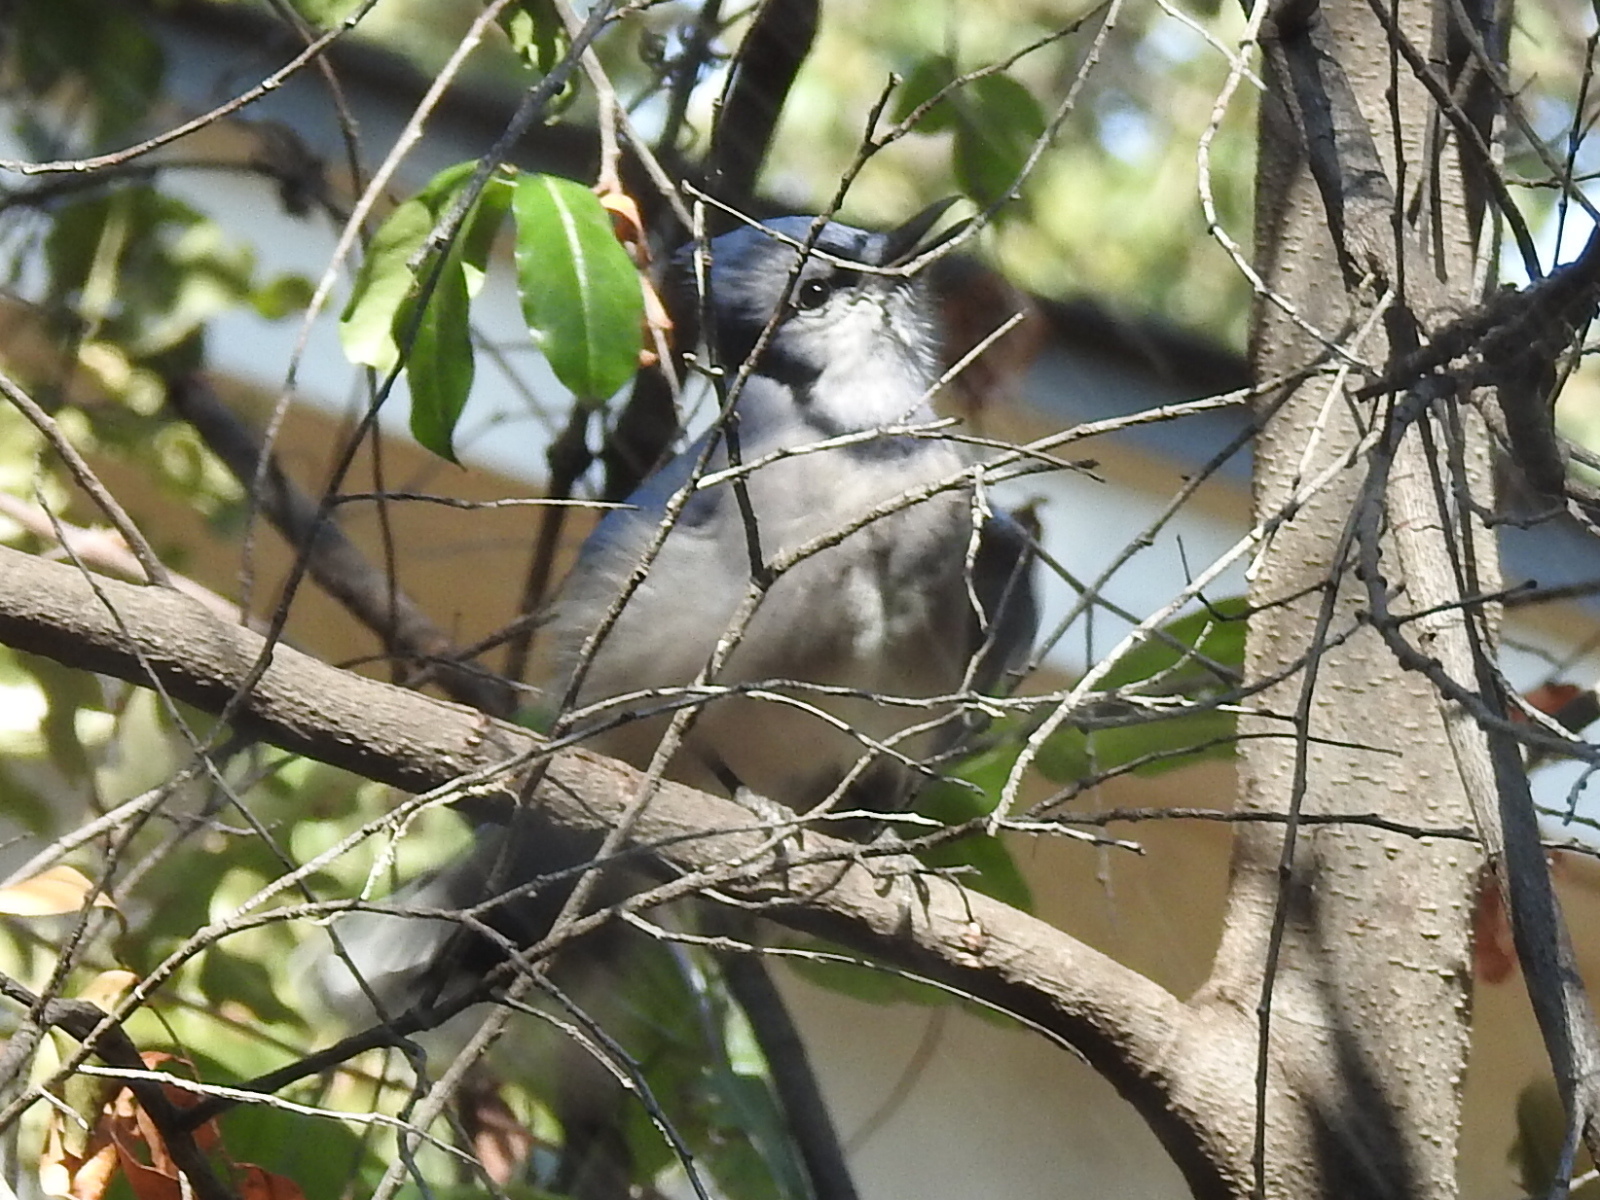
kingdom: Animalia
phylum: Chordata
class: Aves
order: Passeriformes
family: Corvidae
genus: Cyanocitta
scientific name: Cyanocitta cristata
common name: Blue jay
